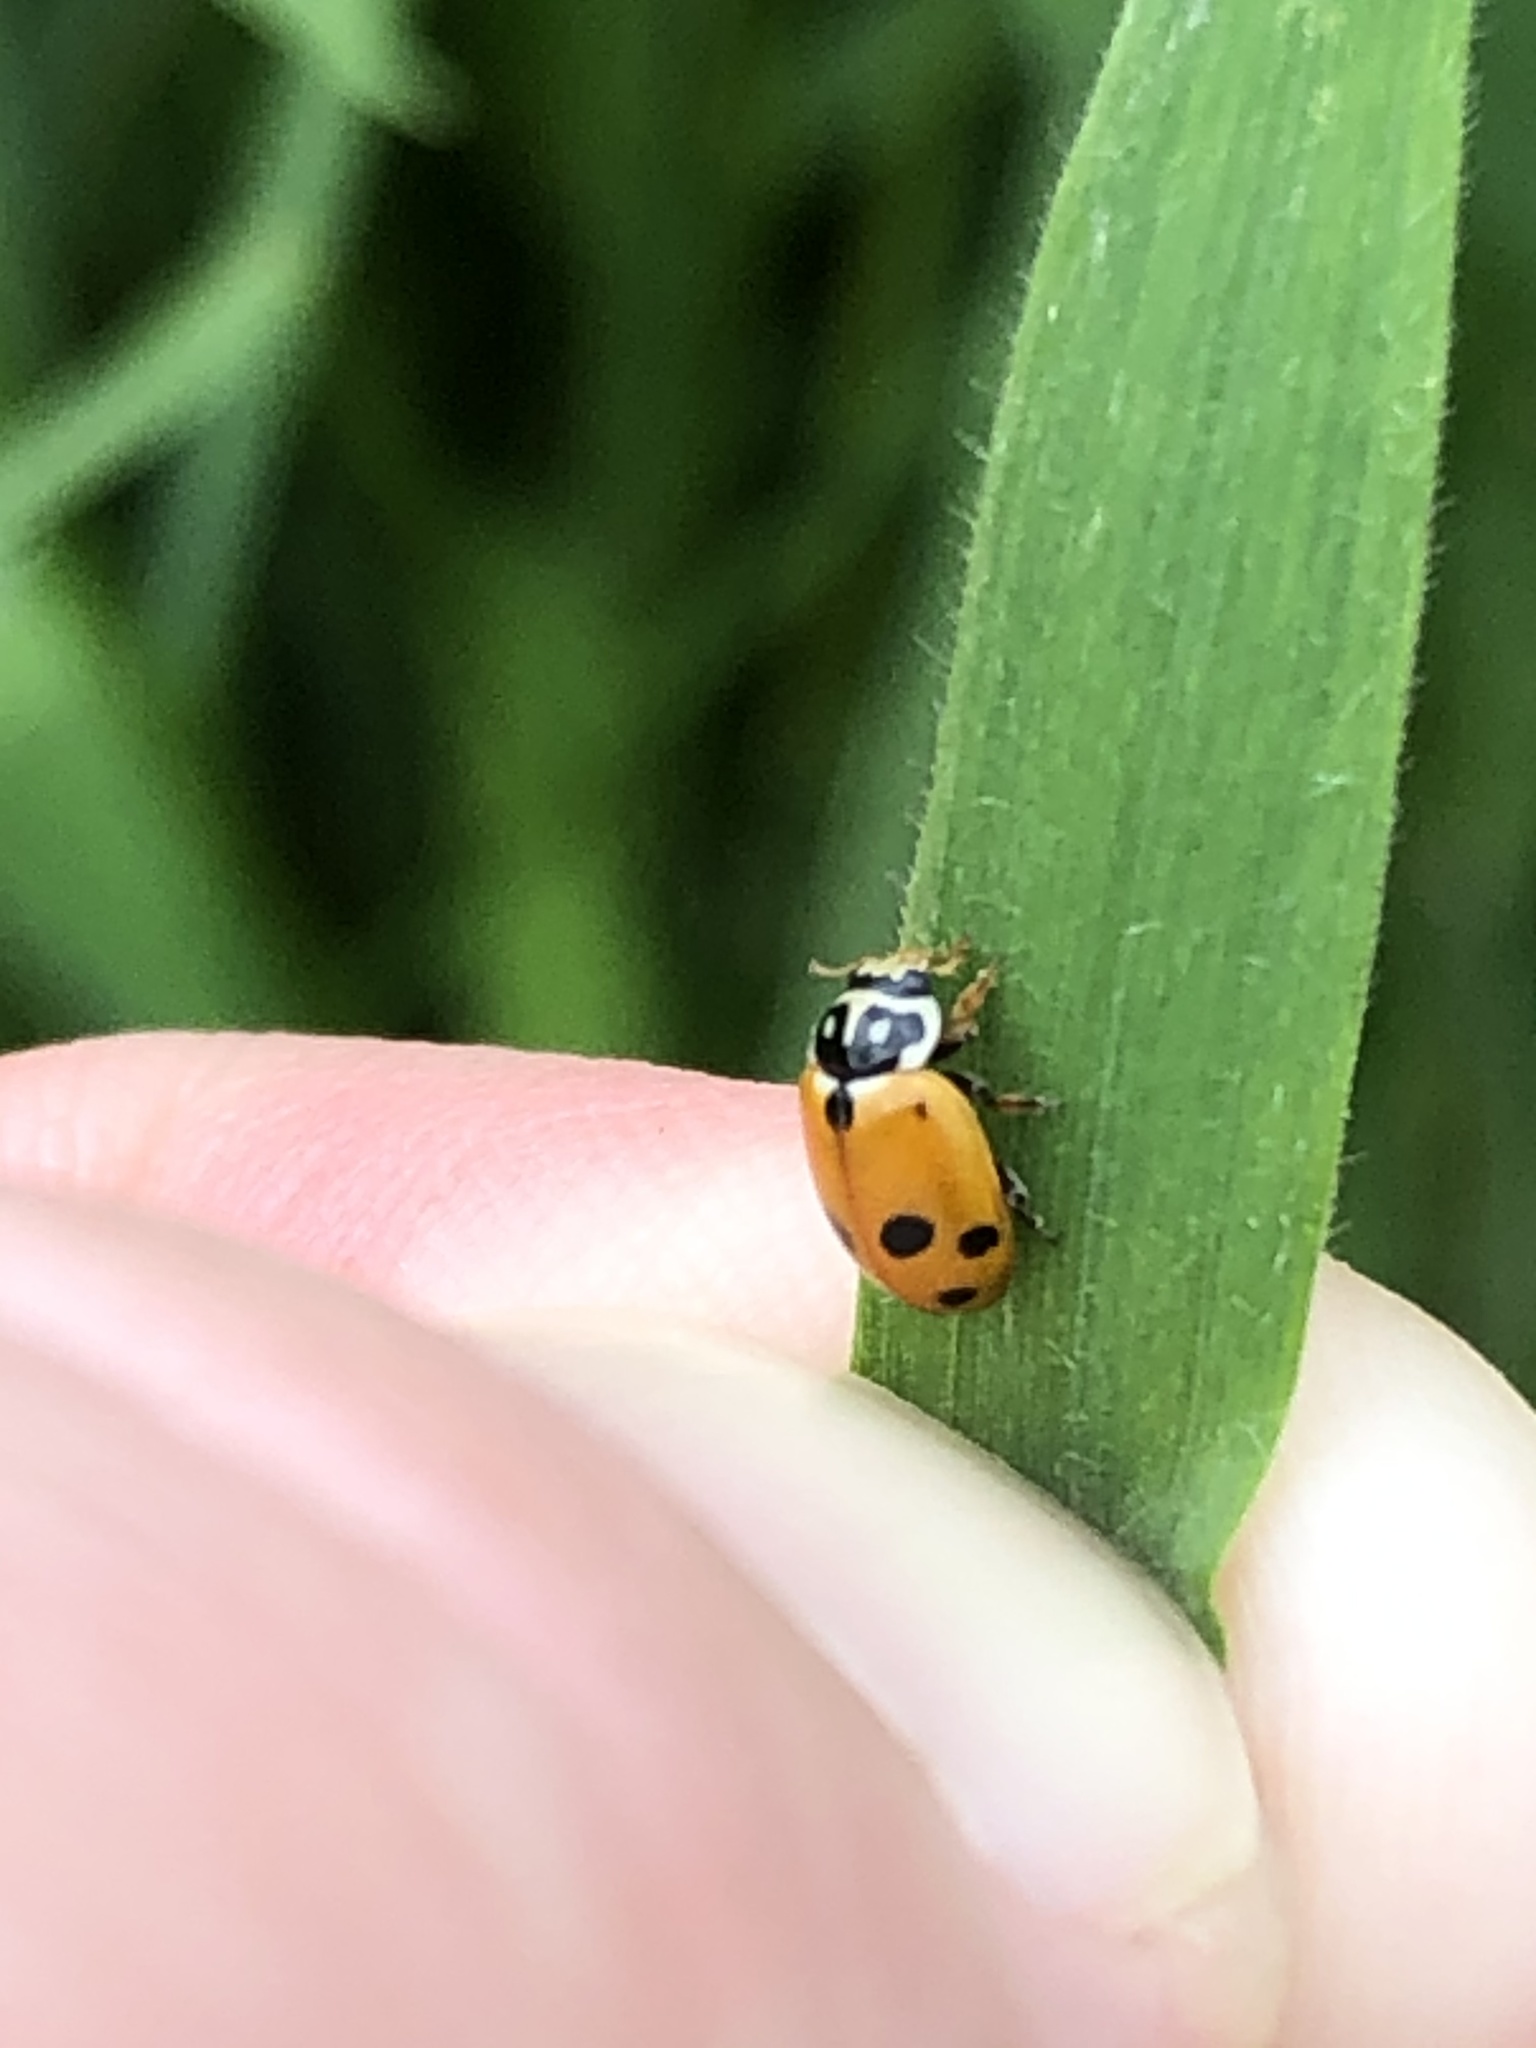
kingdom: Animalia
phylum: Arthropoda
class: Insecta
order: Coleoptera
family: Coccinellidae
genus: Hippodamia
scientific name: Hippodamia variegata
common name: Ladybird beetle
